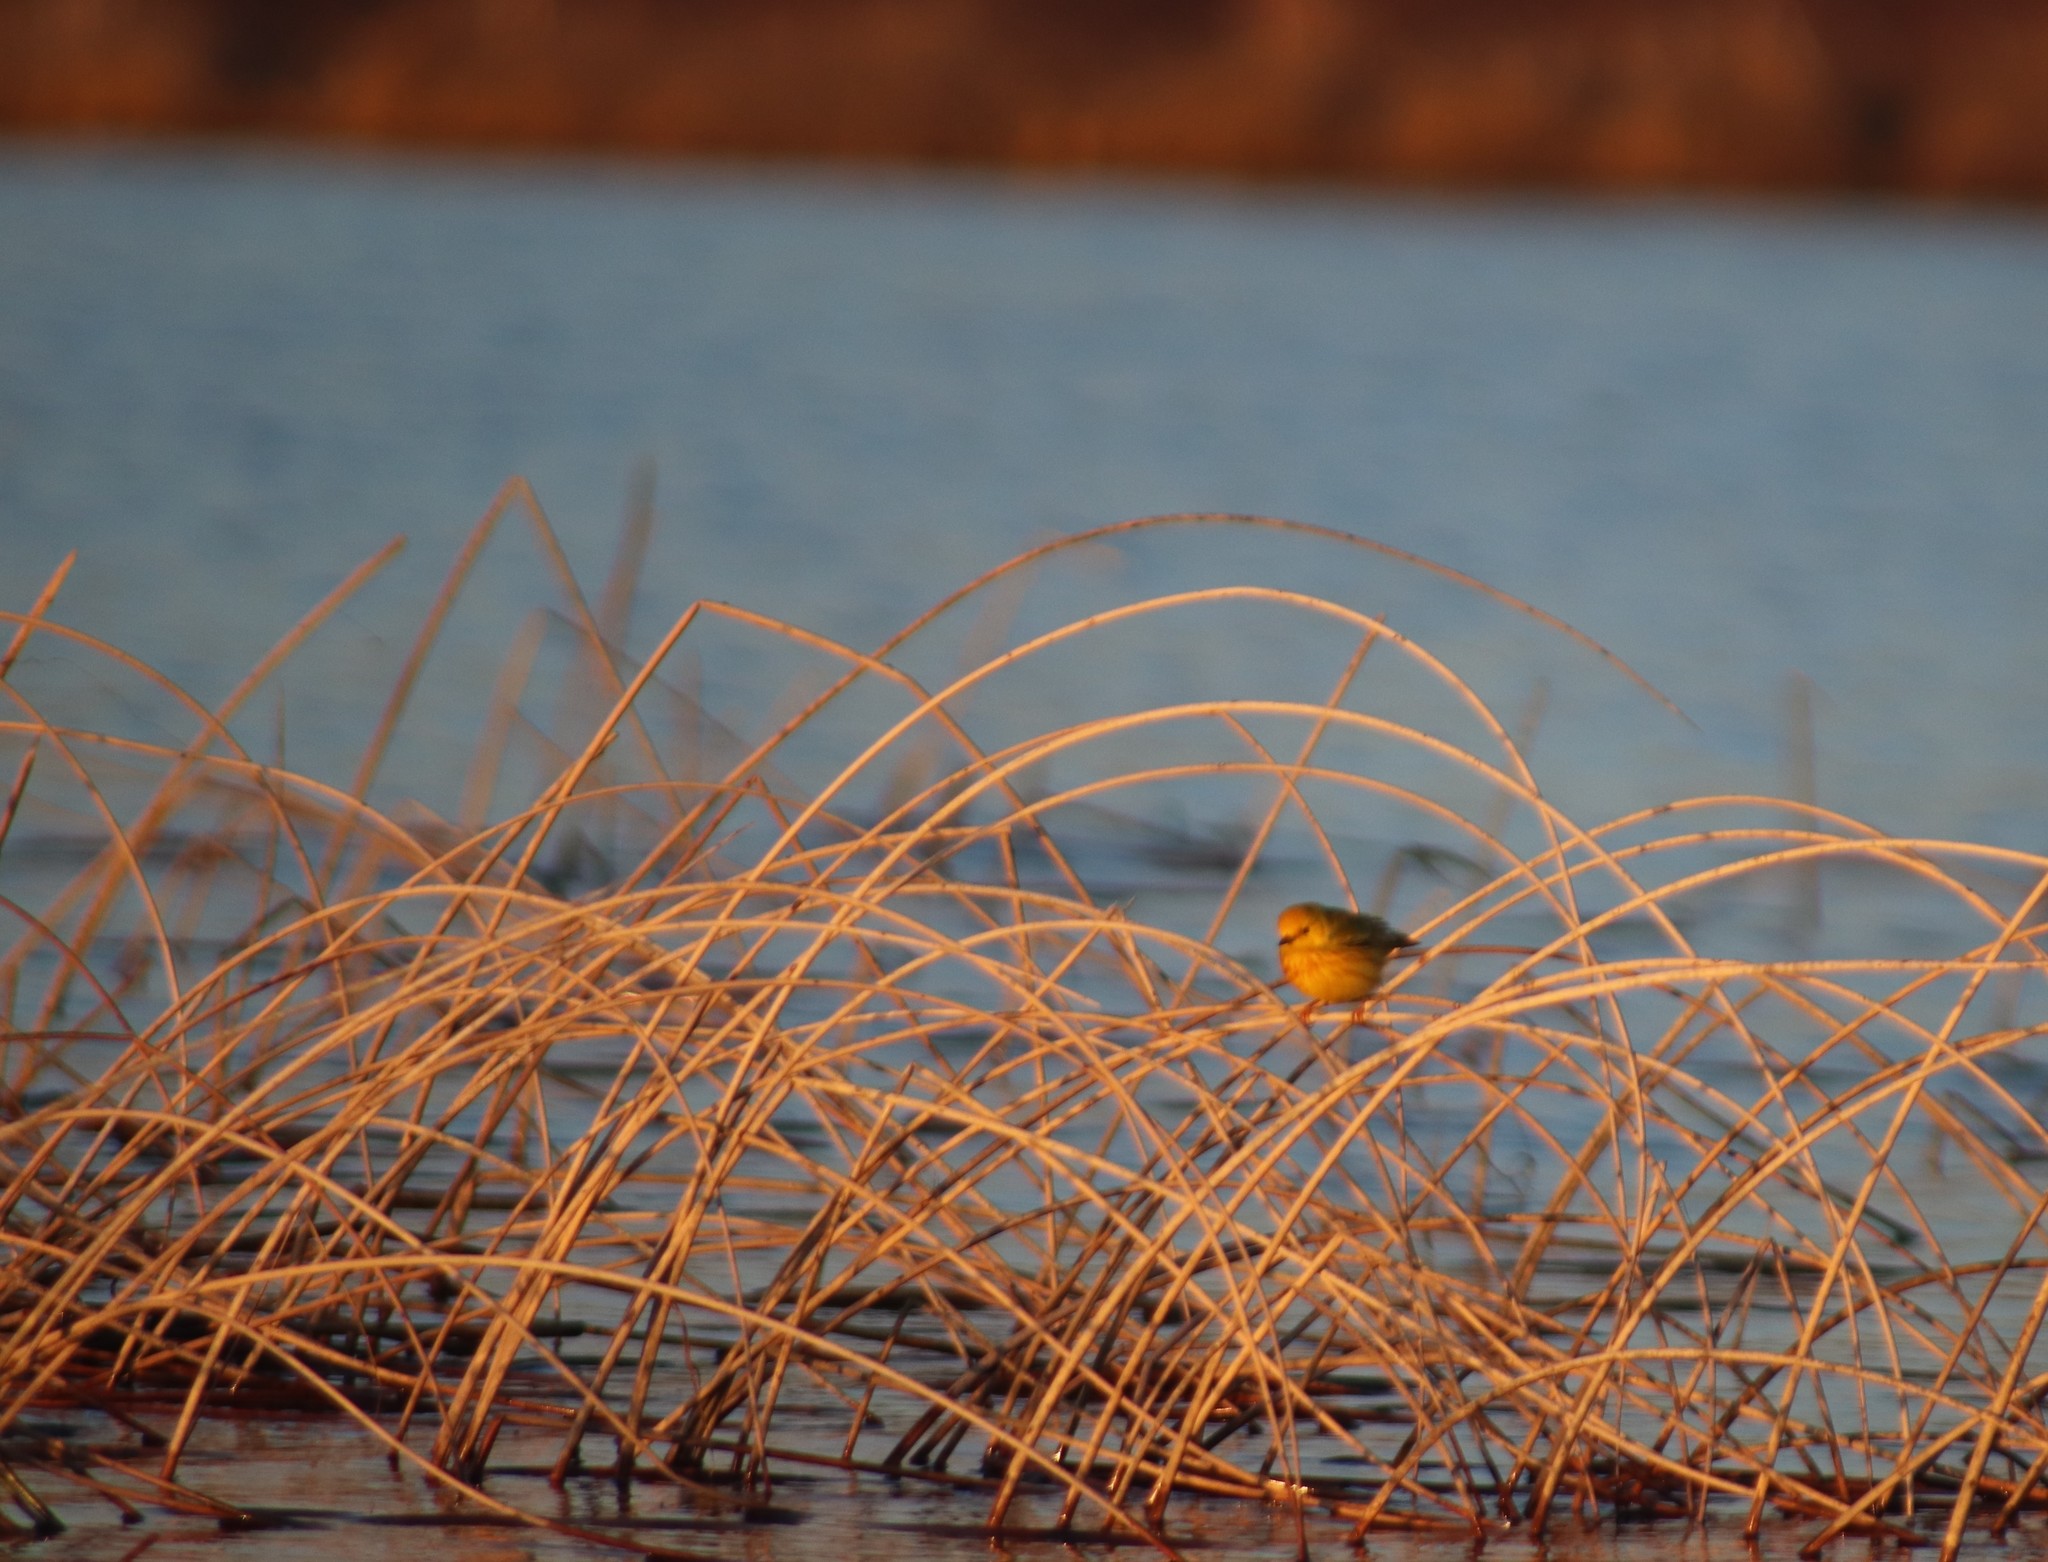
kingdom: Animalia
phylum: Chordata
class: Aves
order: Passeriformes
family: Parulidae
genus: Setophaga
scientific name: Setophaga petechia
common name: Yellow warbler
